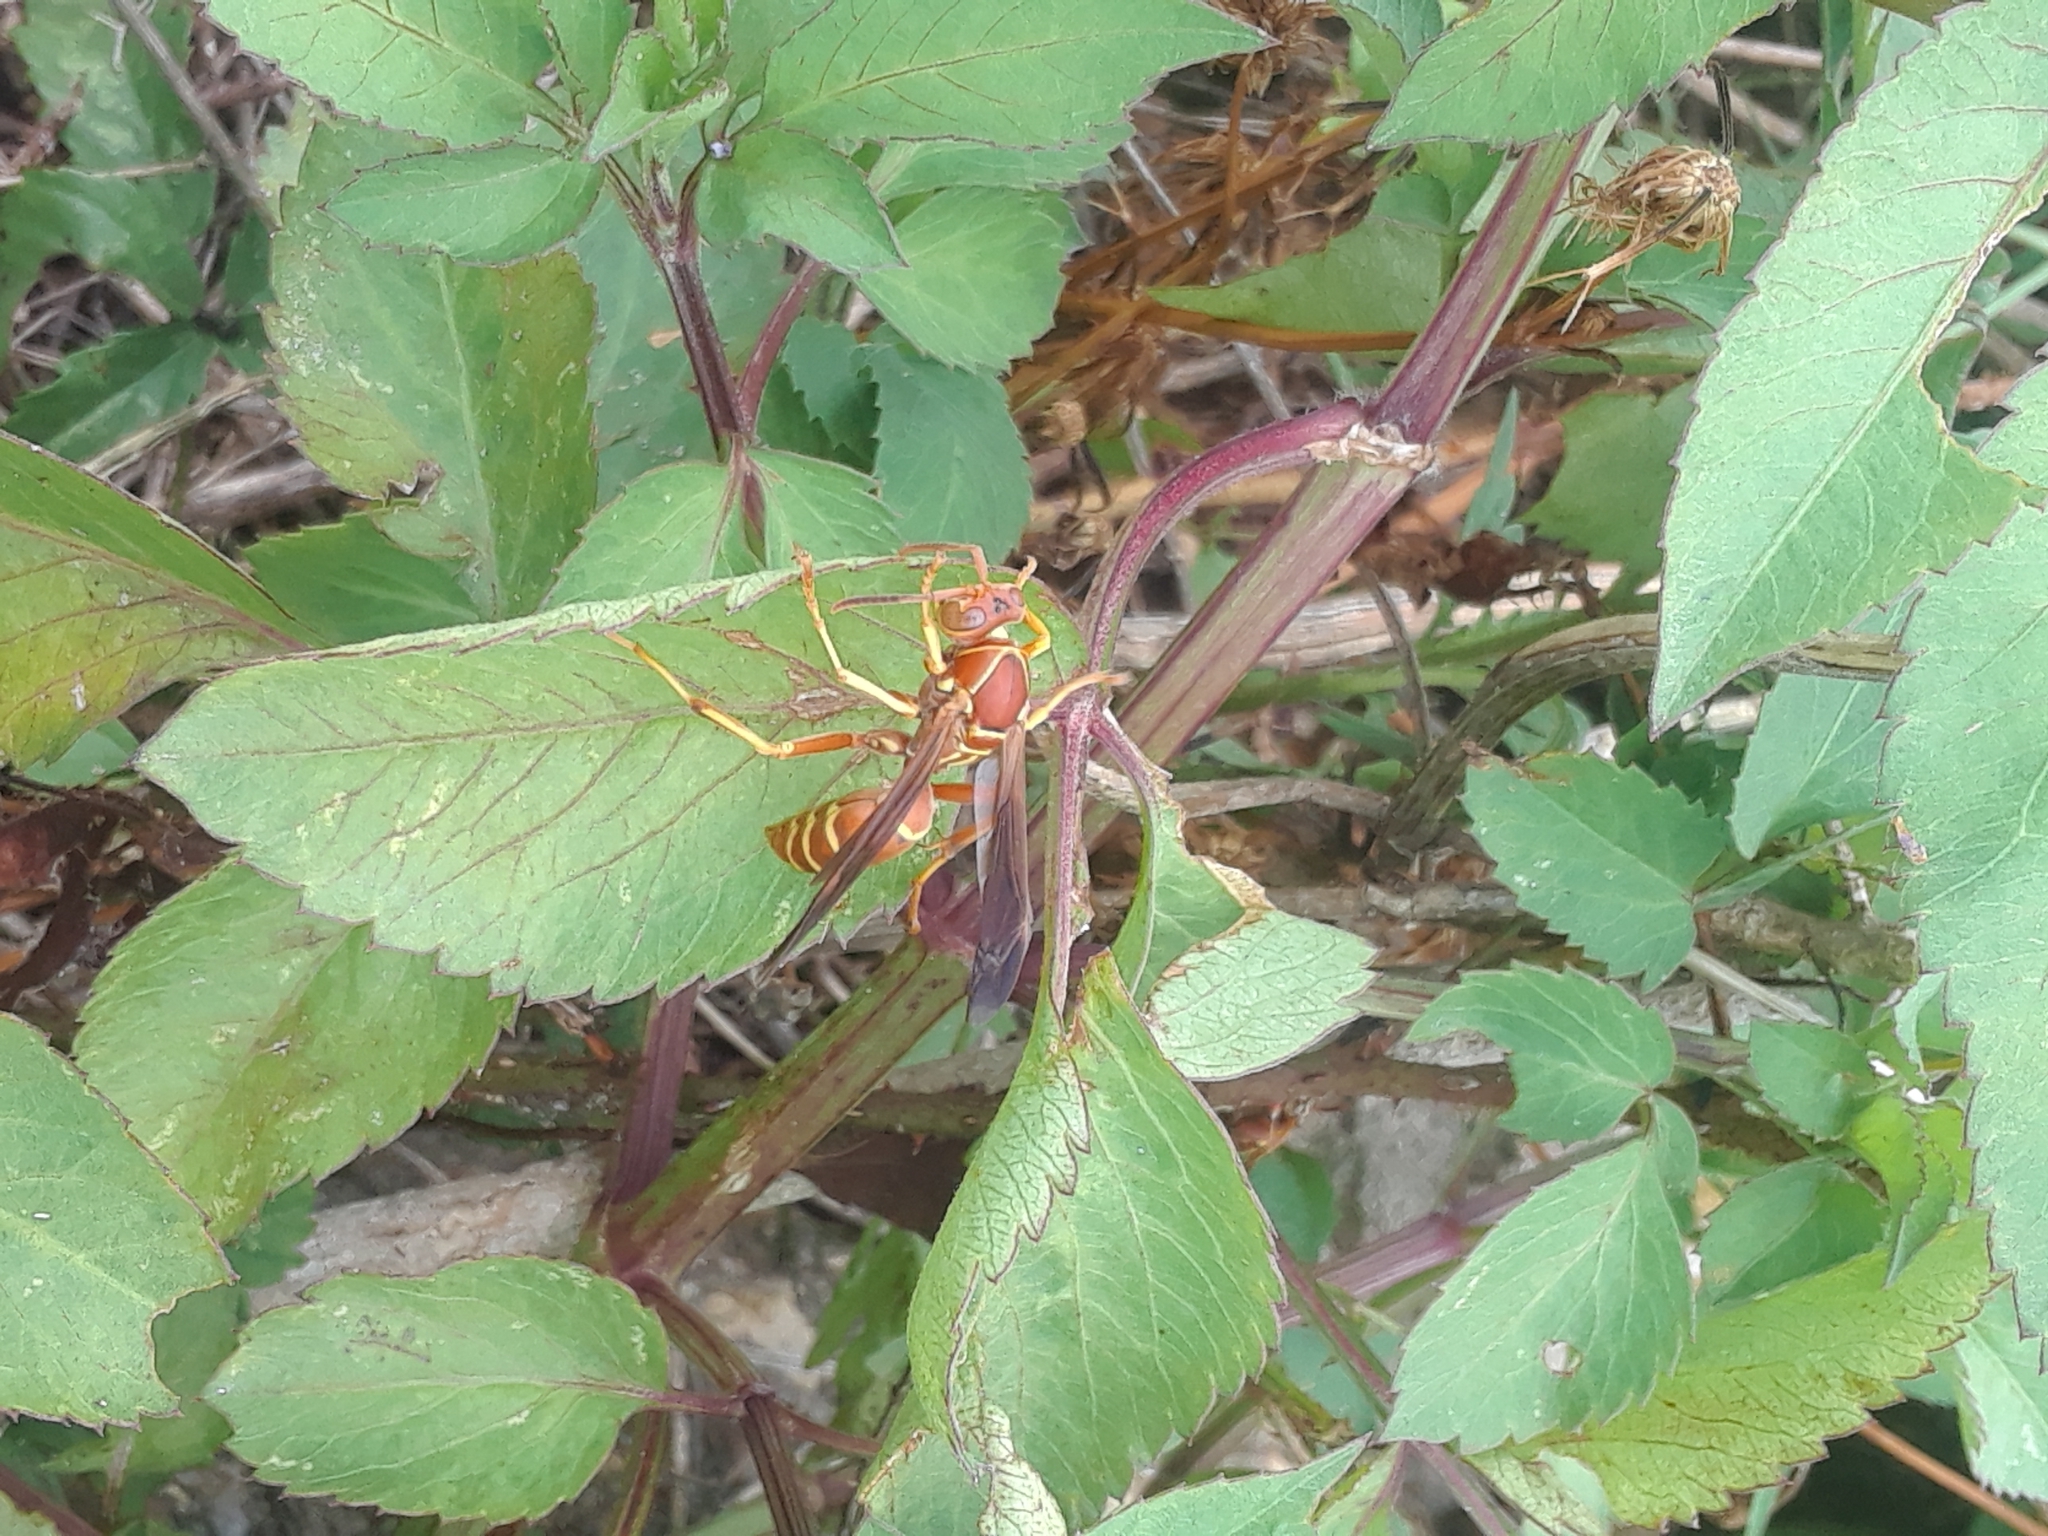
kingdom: Animalia
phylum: Arthropoda
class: Insecta
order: Hymenoptera
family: Eumenidae
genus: Polistes
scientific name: Polistes bellicosus
